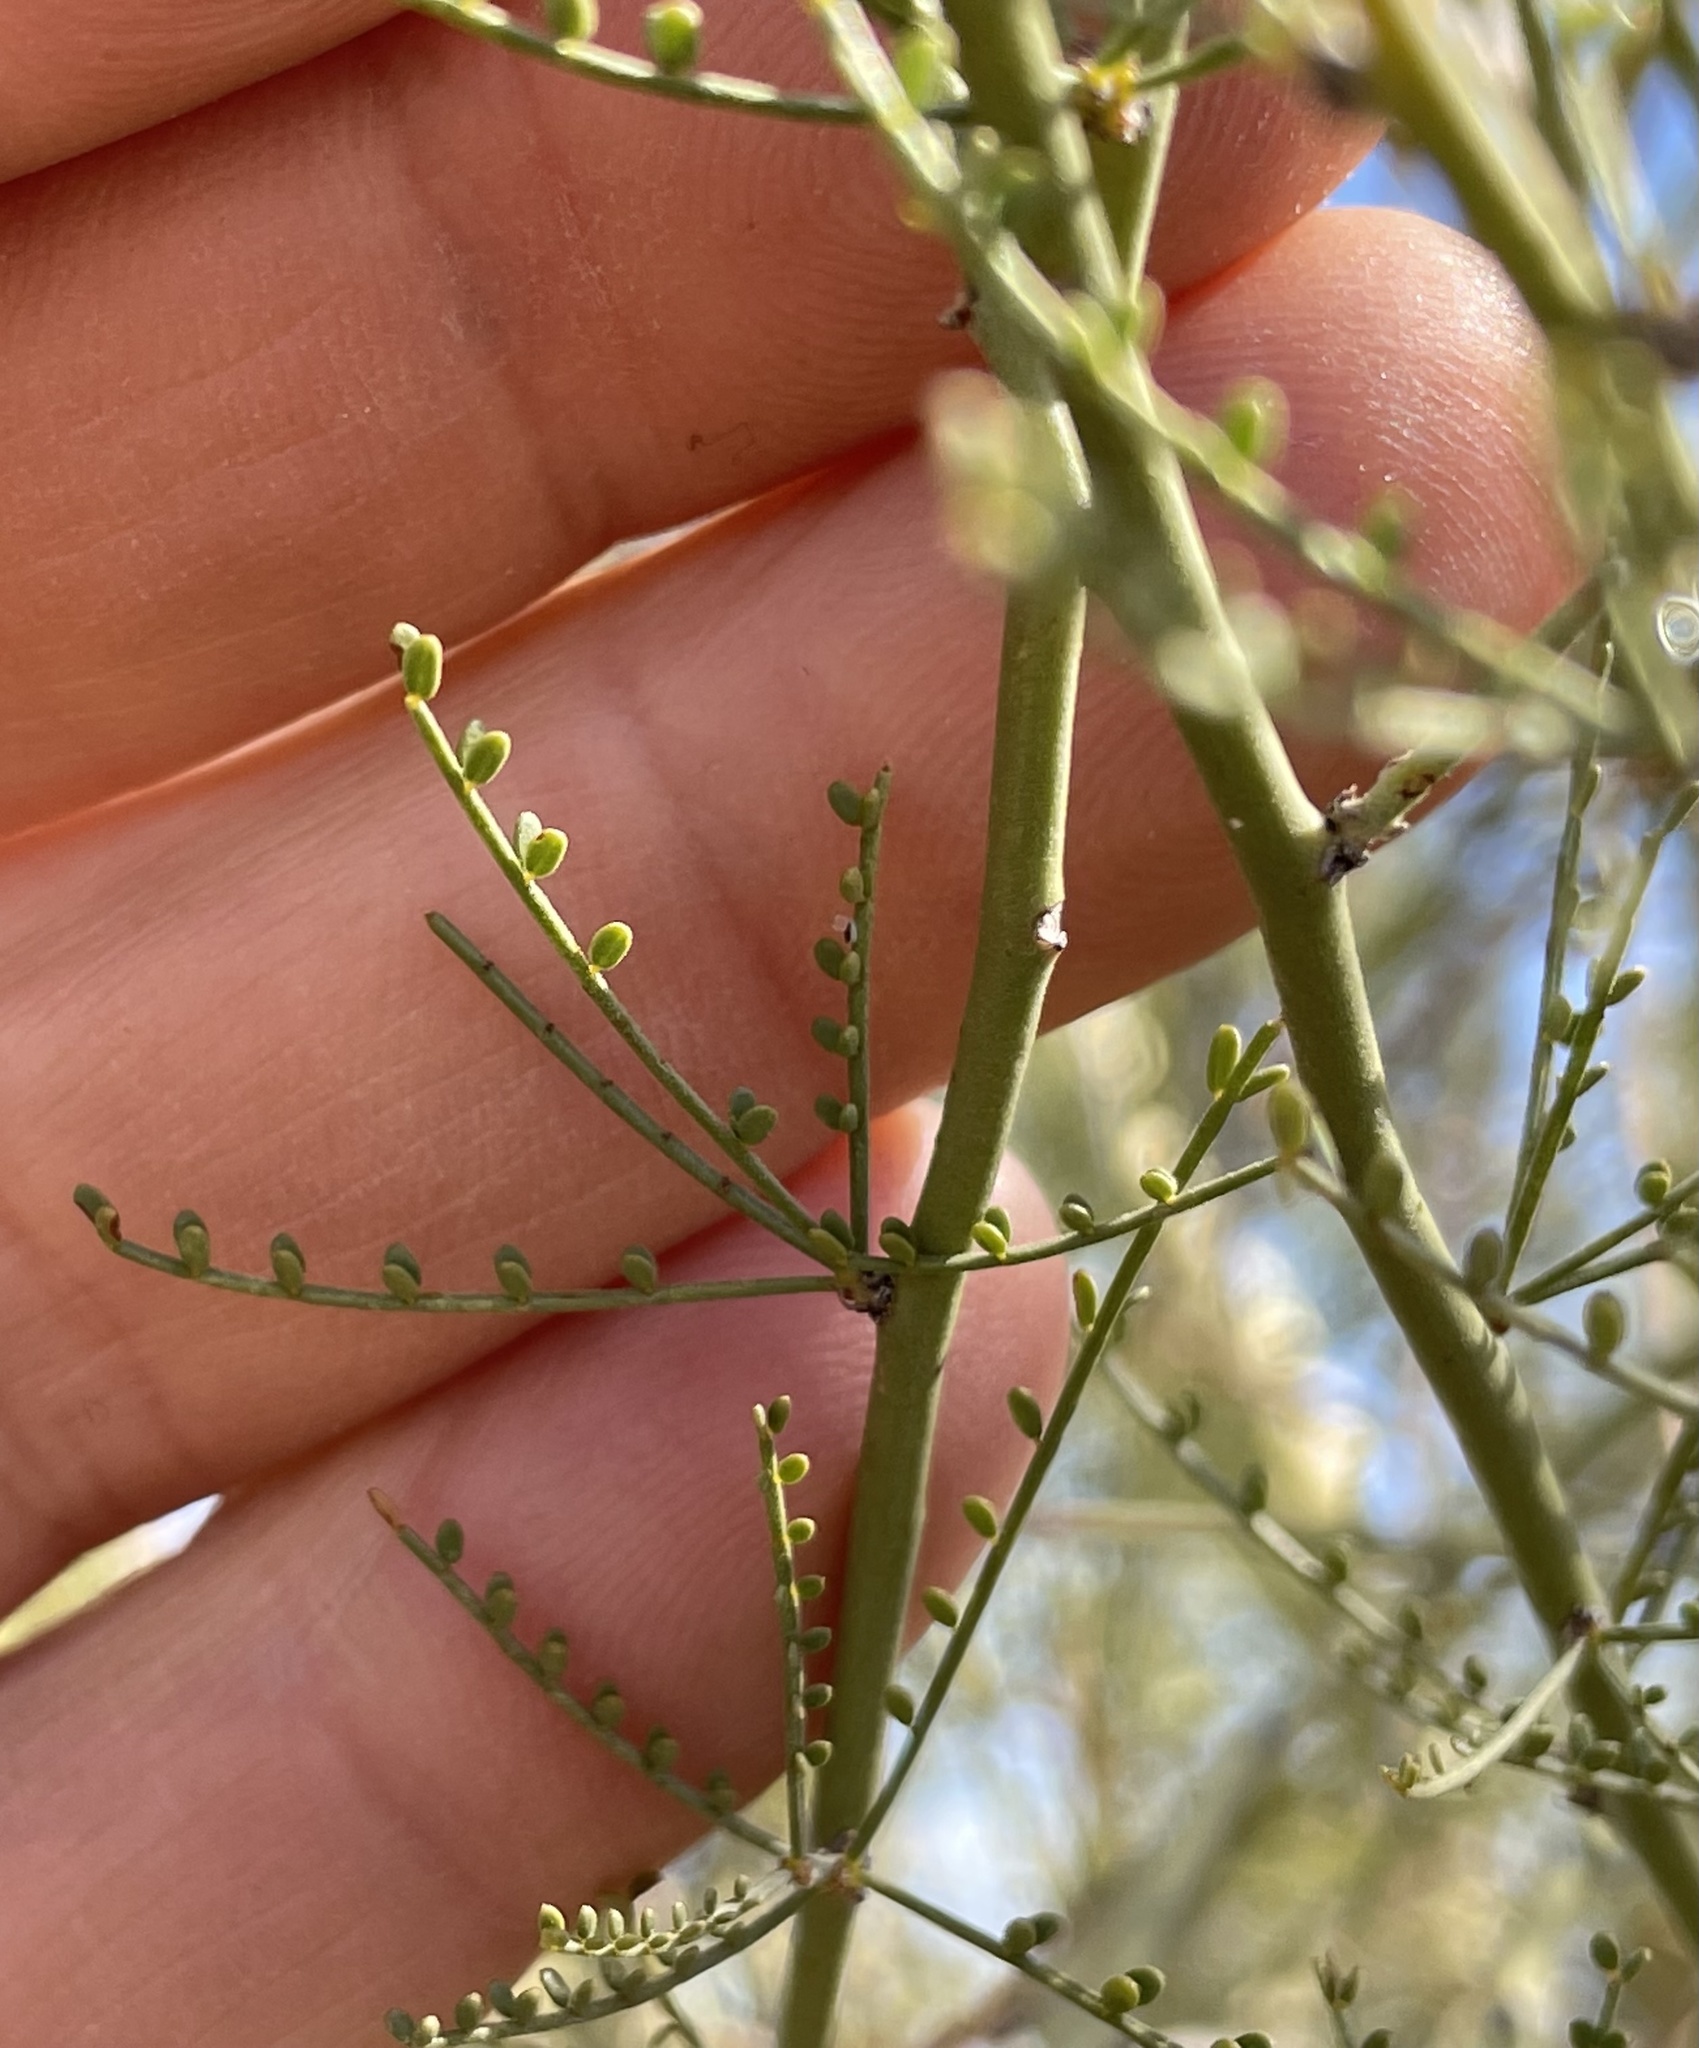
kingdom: Plantae
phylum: Tracheophyta
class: Magnoliopsida
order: Fabales
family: Fabaceae
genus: Parkinsonia
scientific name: Parkinsonia microphylla
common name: Yellow paloverde
